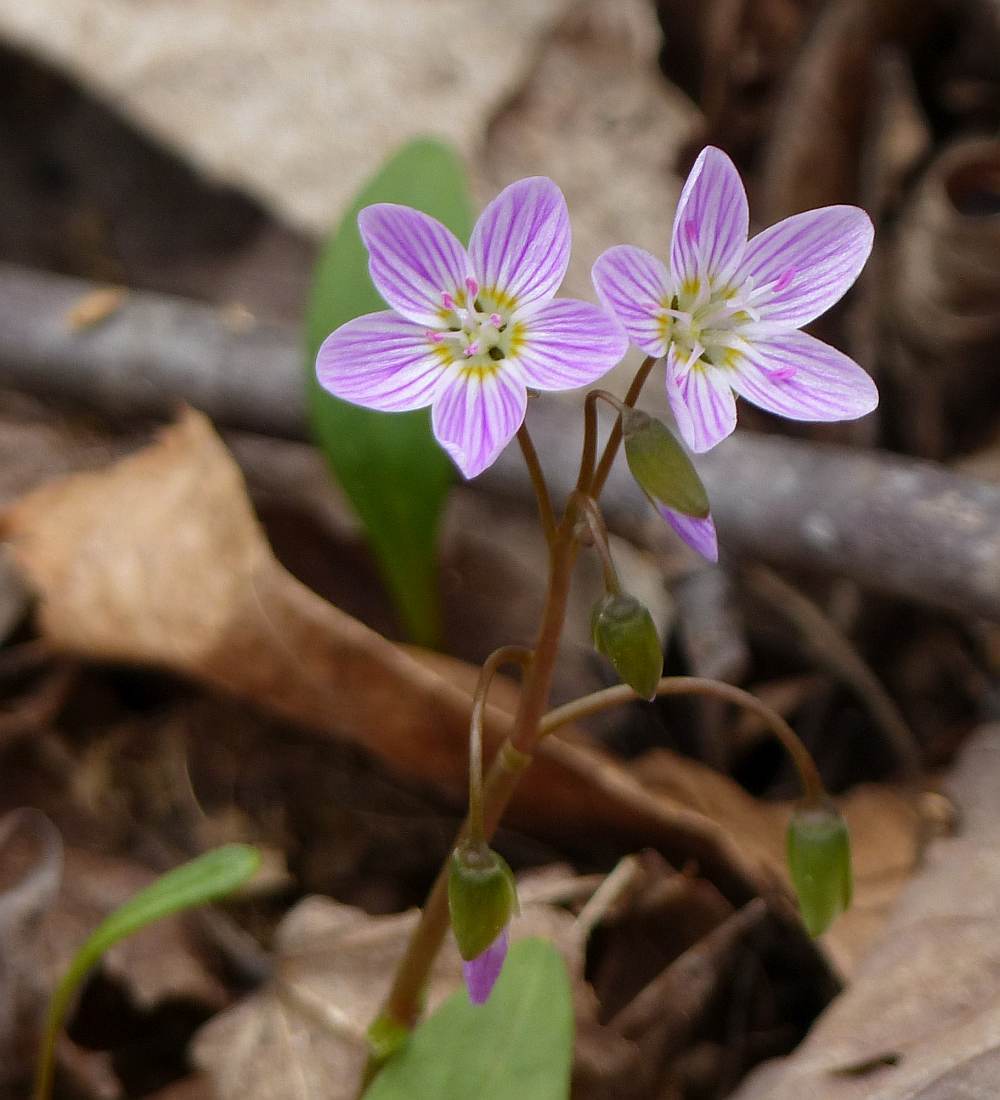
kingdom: Plantae
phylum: Tracheophyta
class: Magnoliopsida
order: Caryophyllales
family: Montiaceae
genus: Claytonia
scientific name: Claytonia caroliniana
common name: Carolina spring beauty
